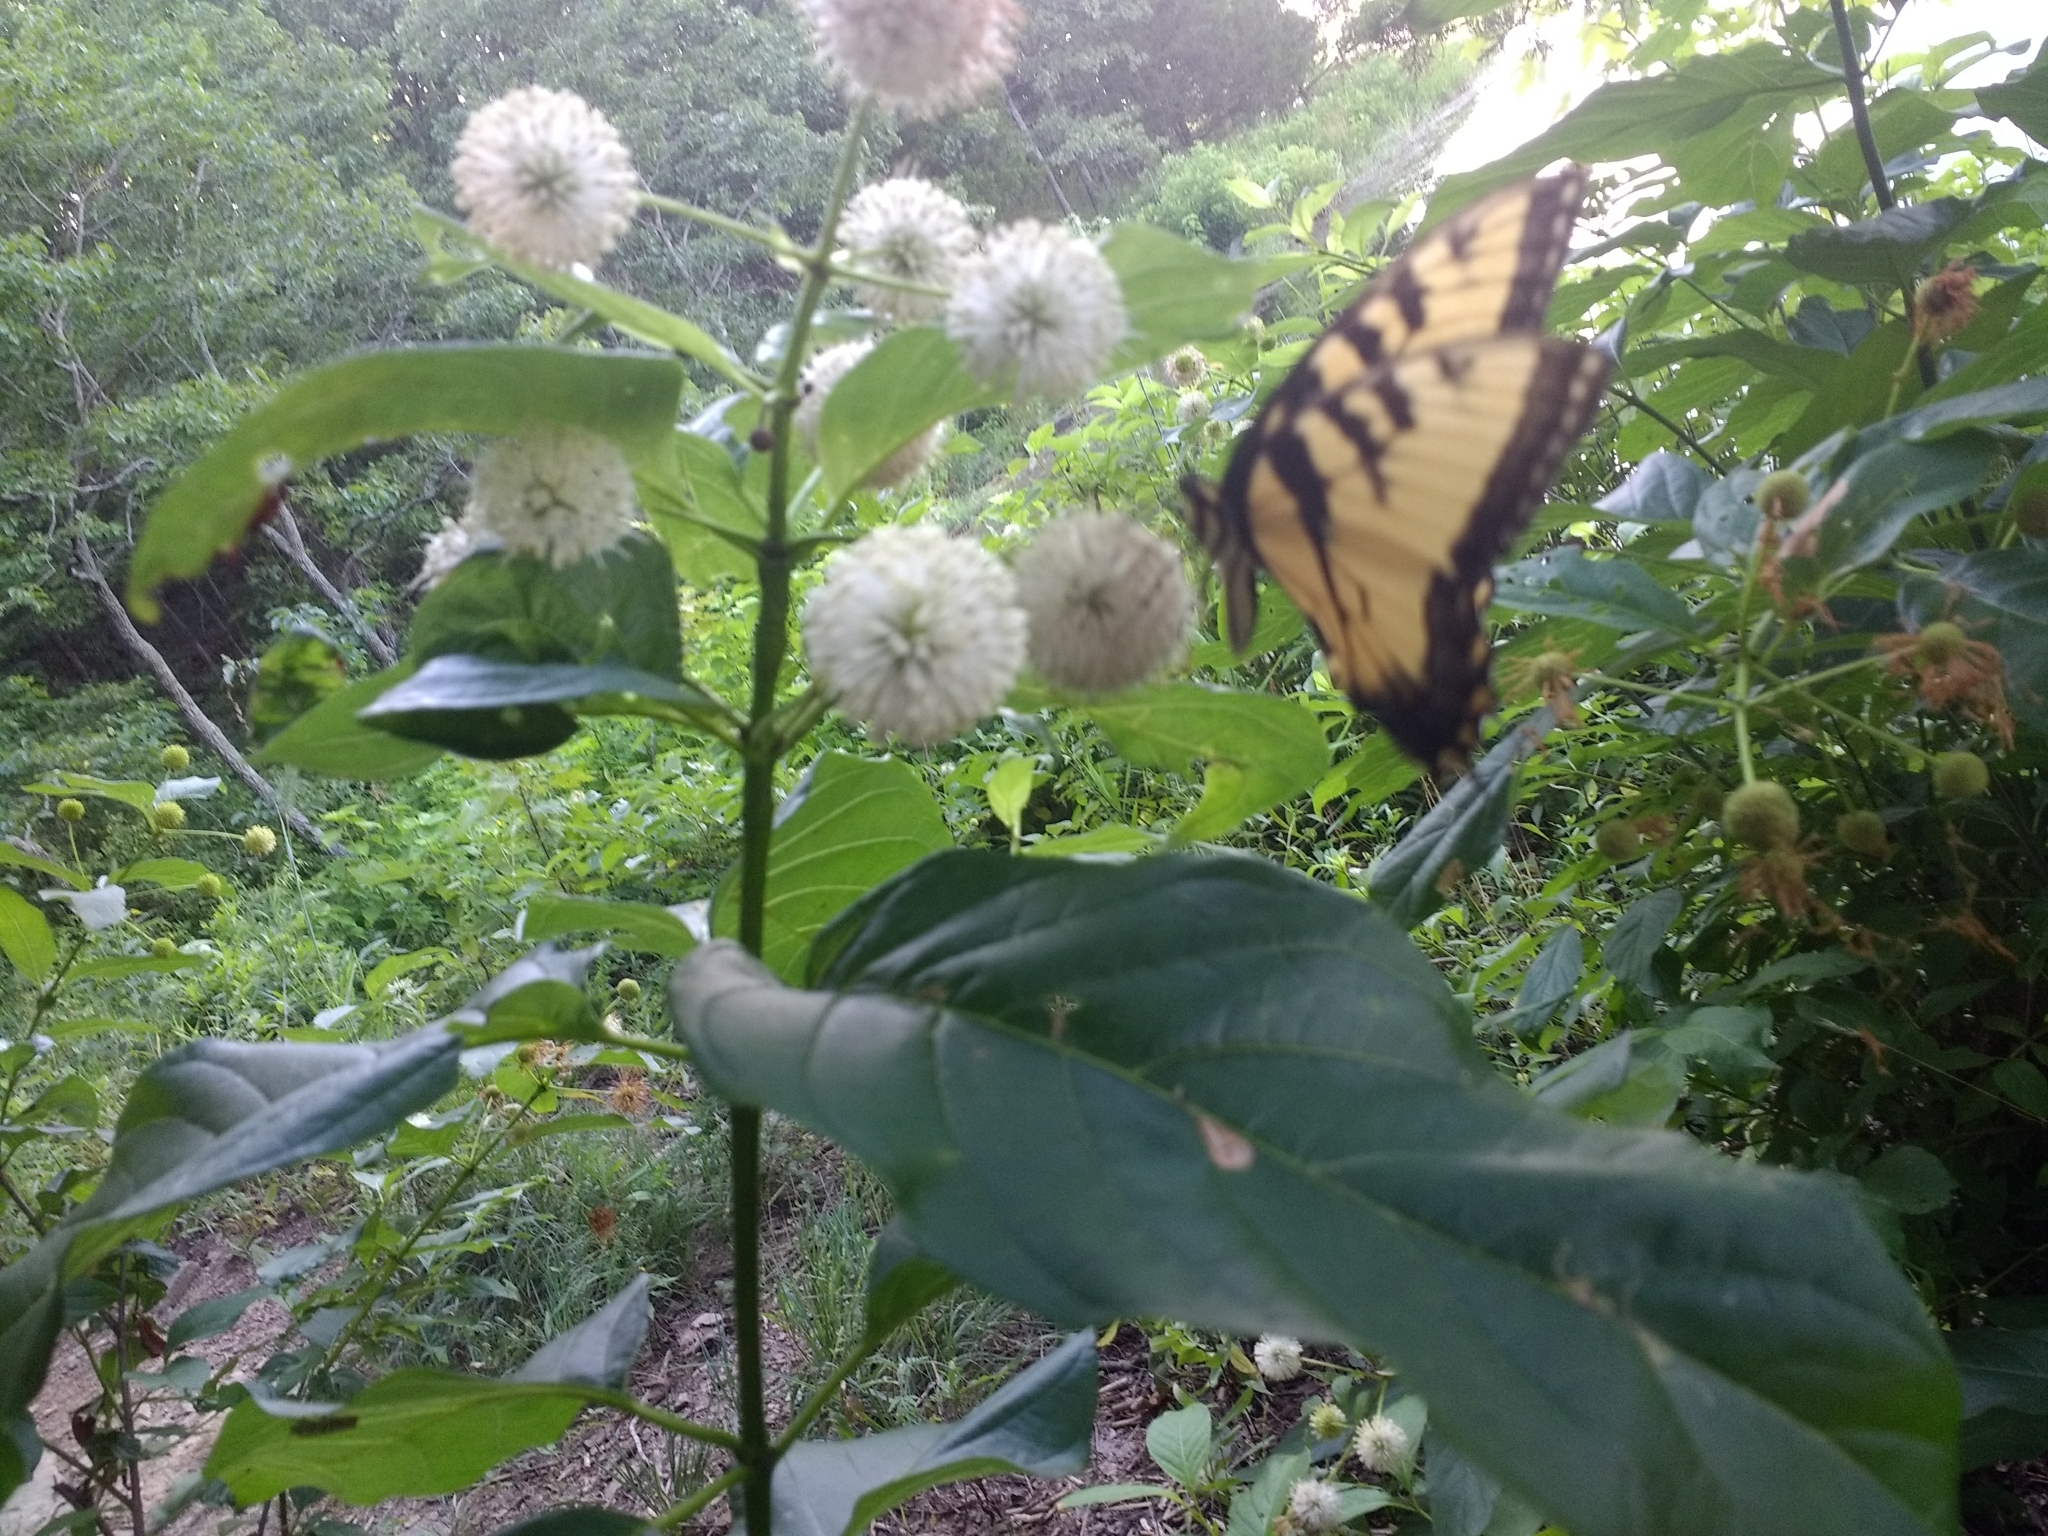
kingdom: Animalia
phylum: Arthropoda
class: Insecta
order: Lepidoptera
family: Papilionidae
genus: Papilio
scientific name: Papilio glaucus
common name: Tiger swallowtail
